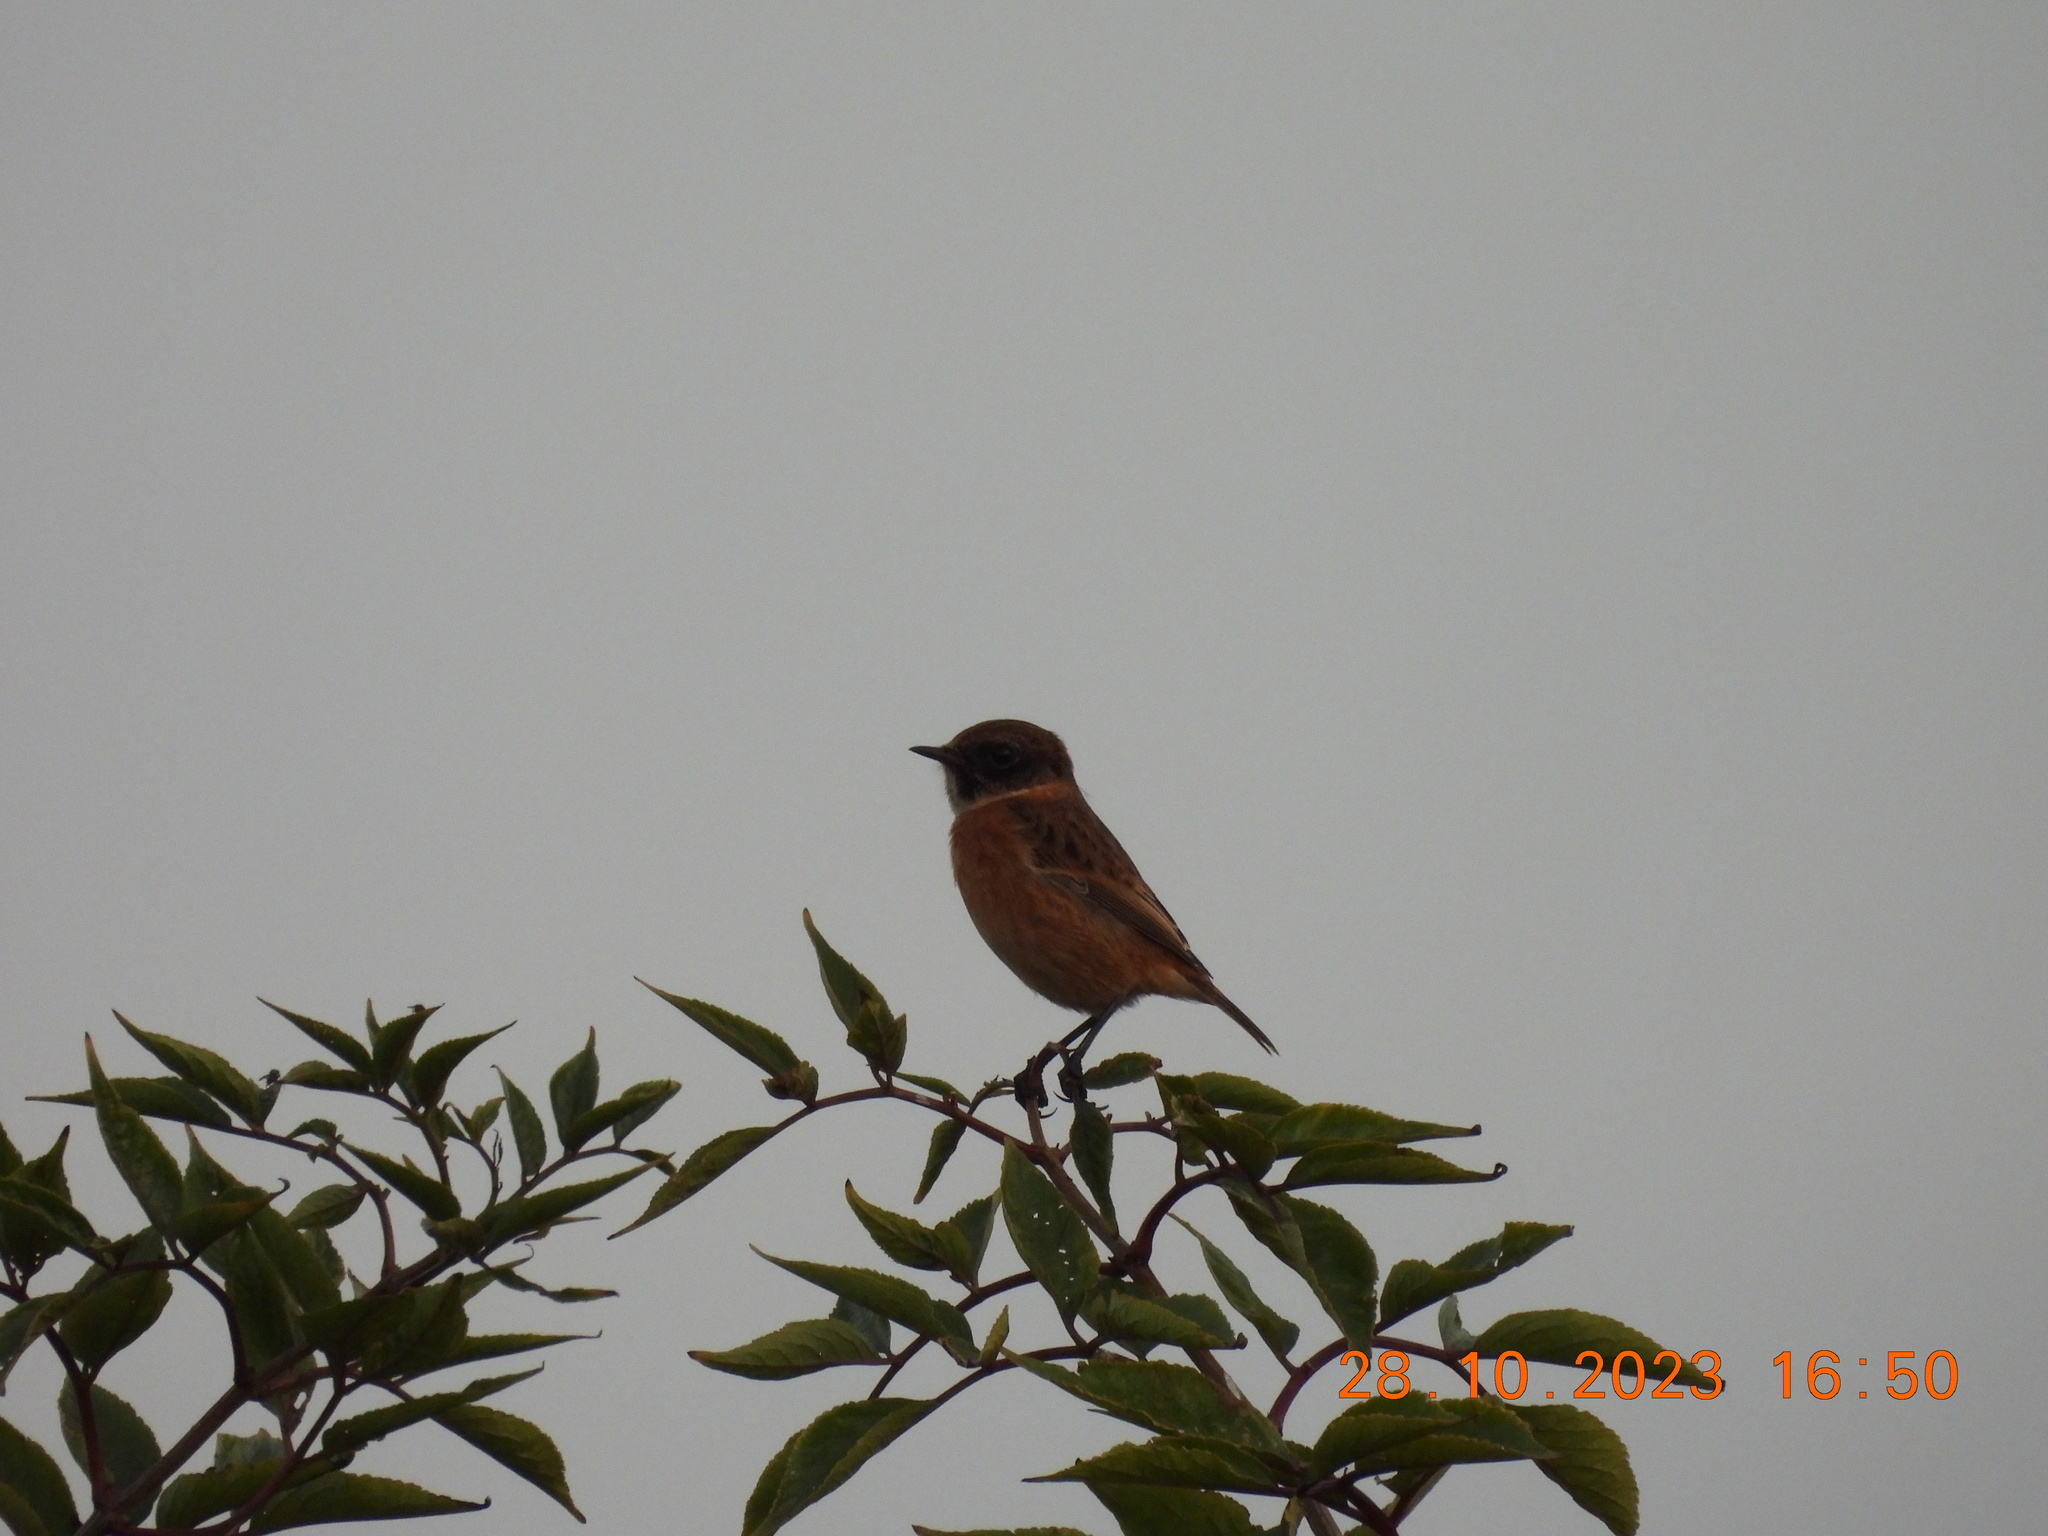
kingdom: Animalia
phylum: Chordata
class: Aves
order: Passeriformes
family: Muscicapidae
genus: Saxicola
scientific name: Saxicola rubicola
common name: European stonechat
